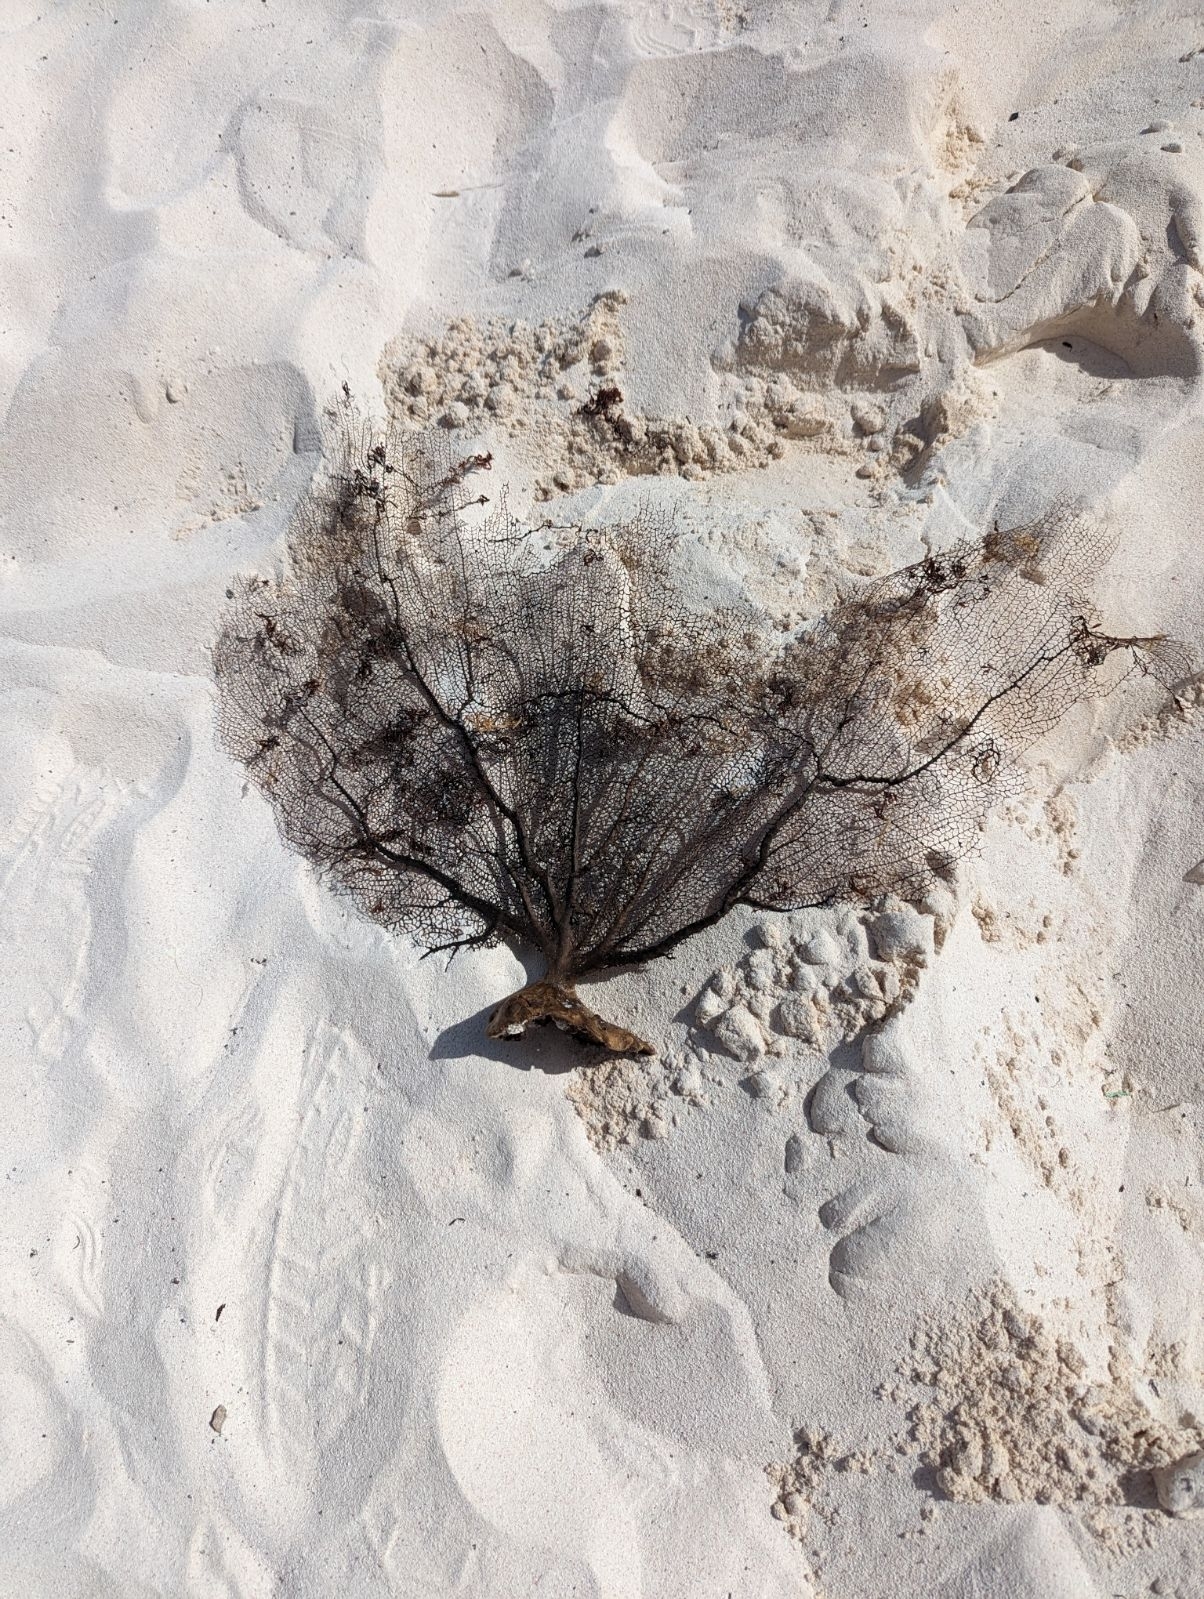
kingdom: Animalia
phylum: Cnidaria
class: Anthozoa
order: Malacalcyonacea
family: Gorgoniidae
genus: Gorgonia
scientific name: Gorgonia ventalina
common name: Common sea fan
